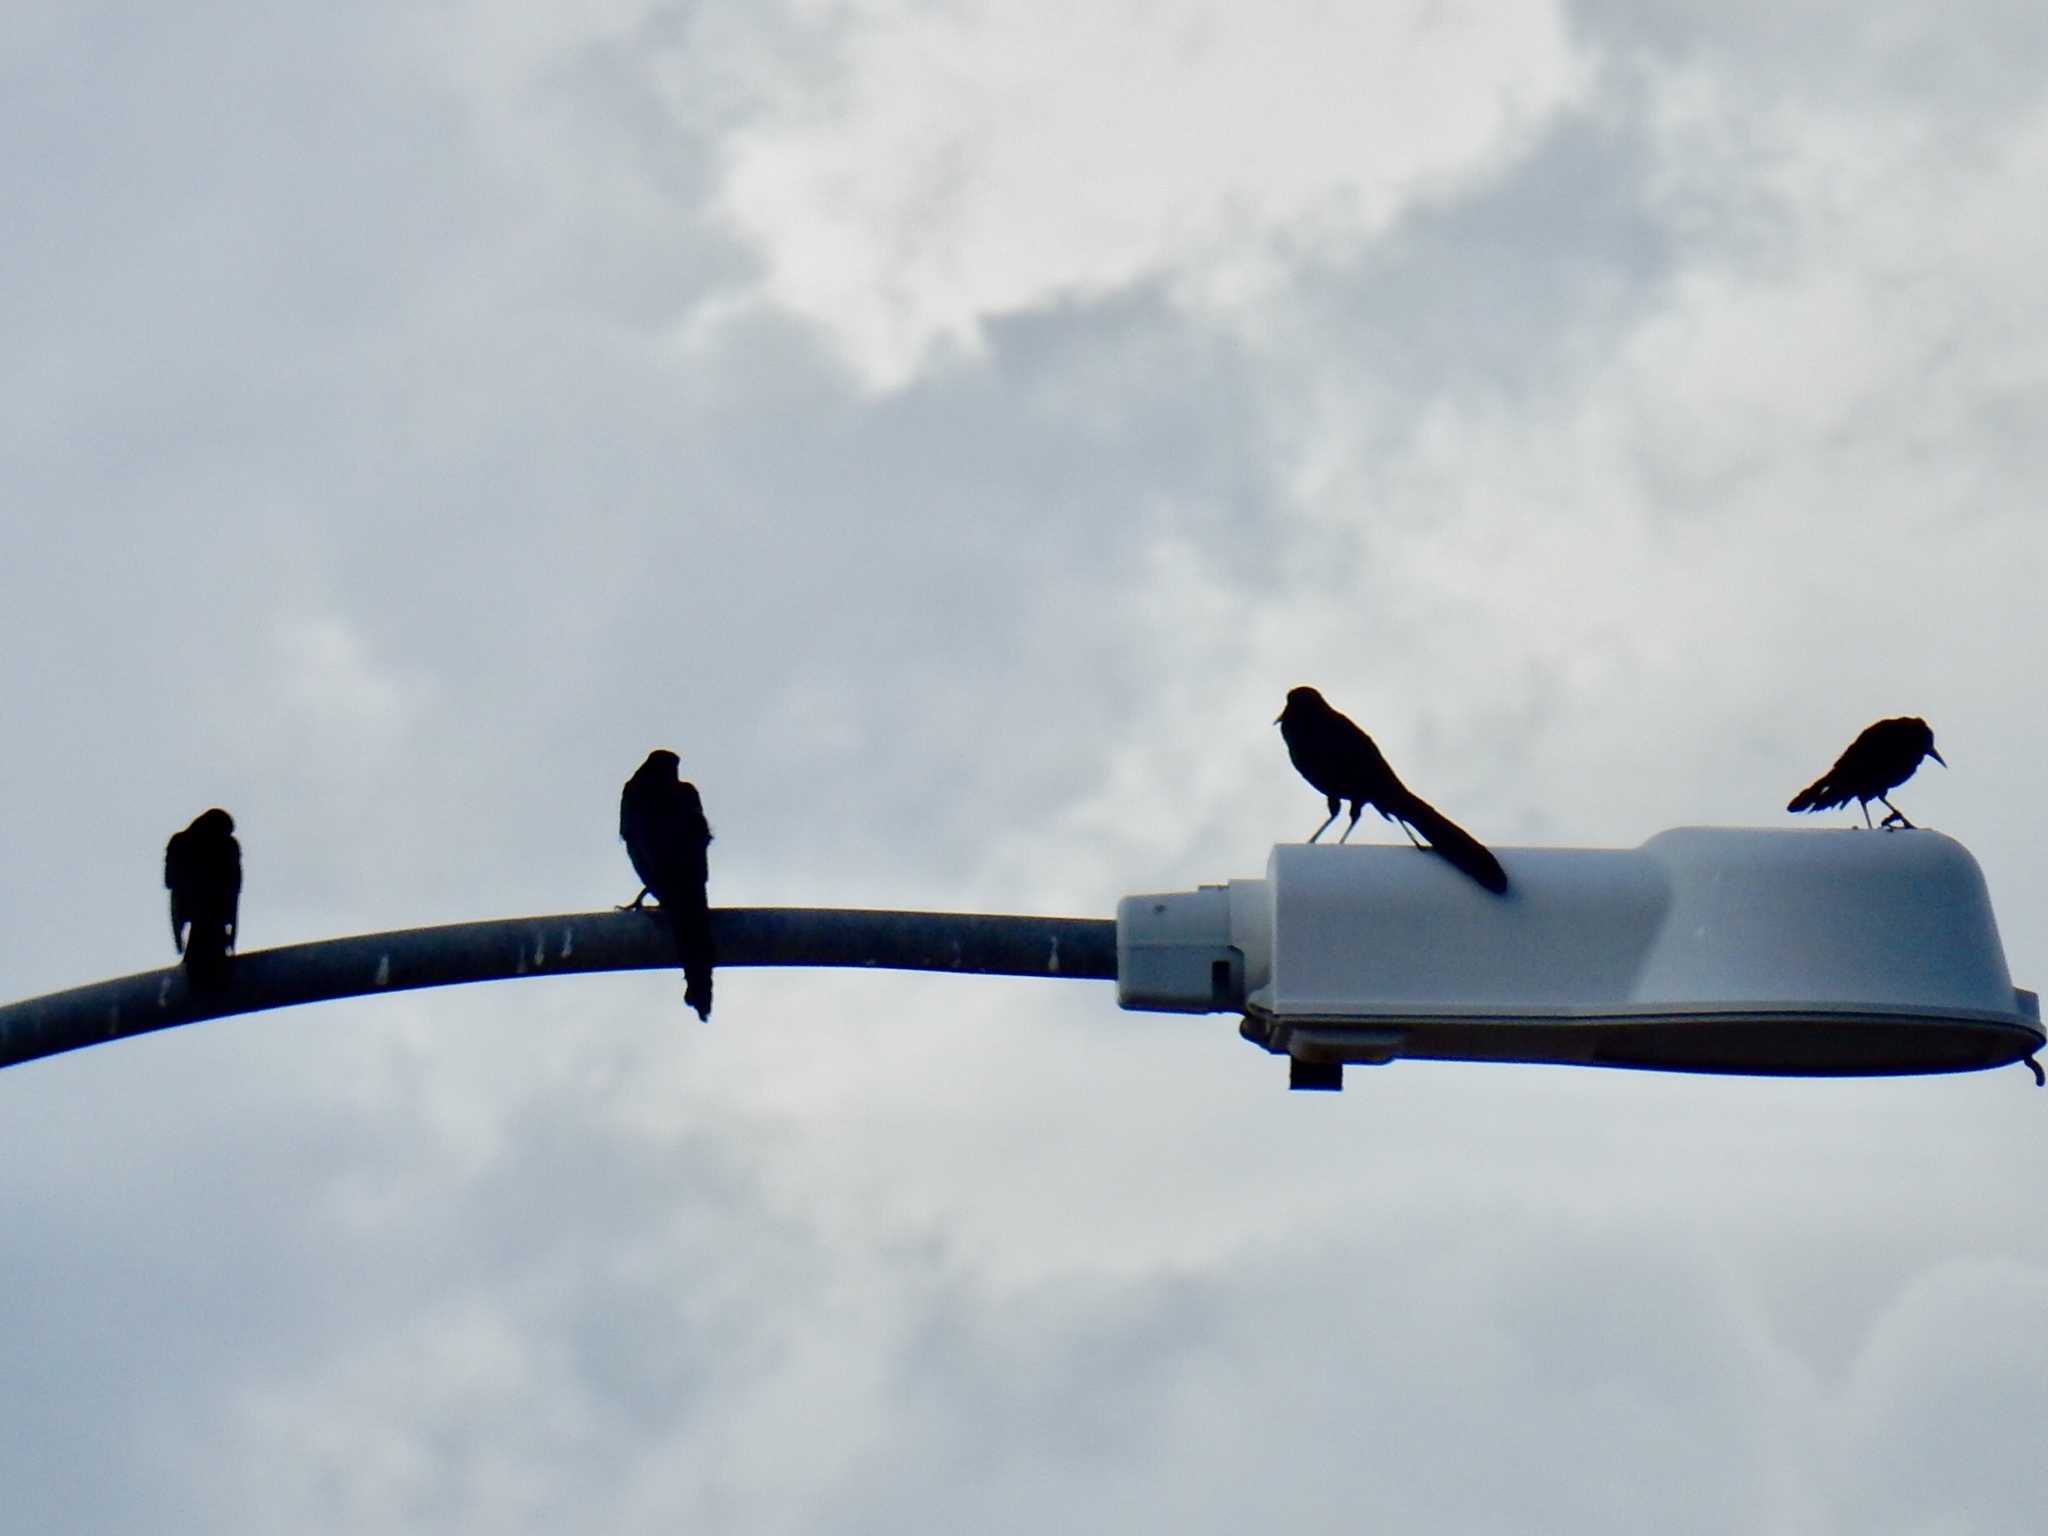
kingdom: Animalia
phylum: Chordata
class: Aves
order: Passeriformes
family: Icteridae
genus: Quiscalus
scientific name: Quiscalus mexicanus
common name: Great-tailed grackle
